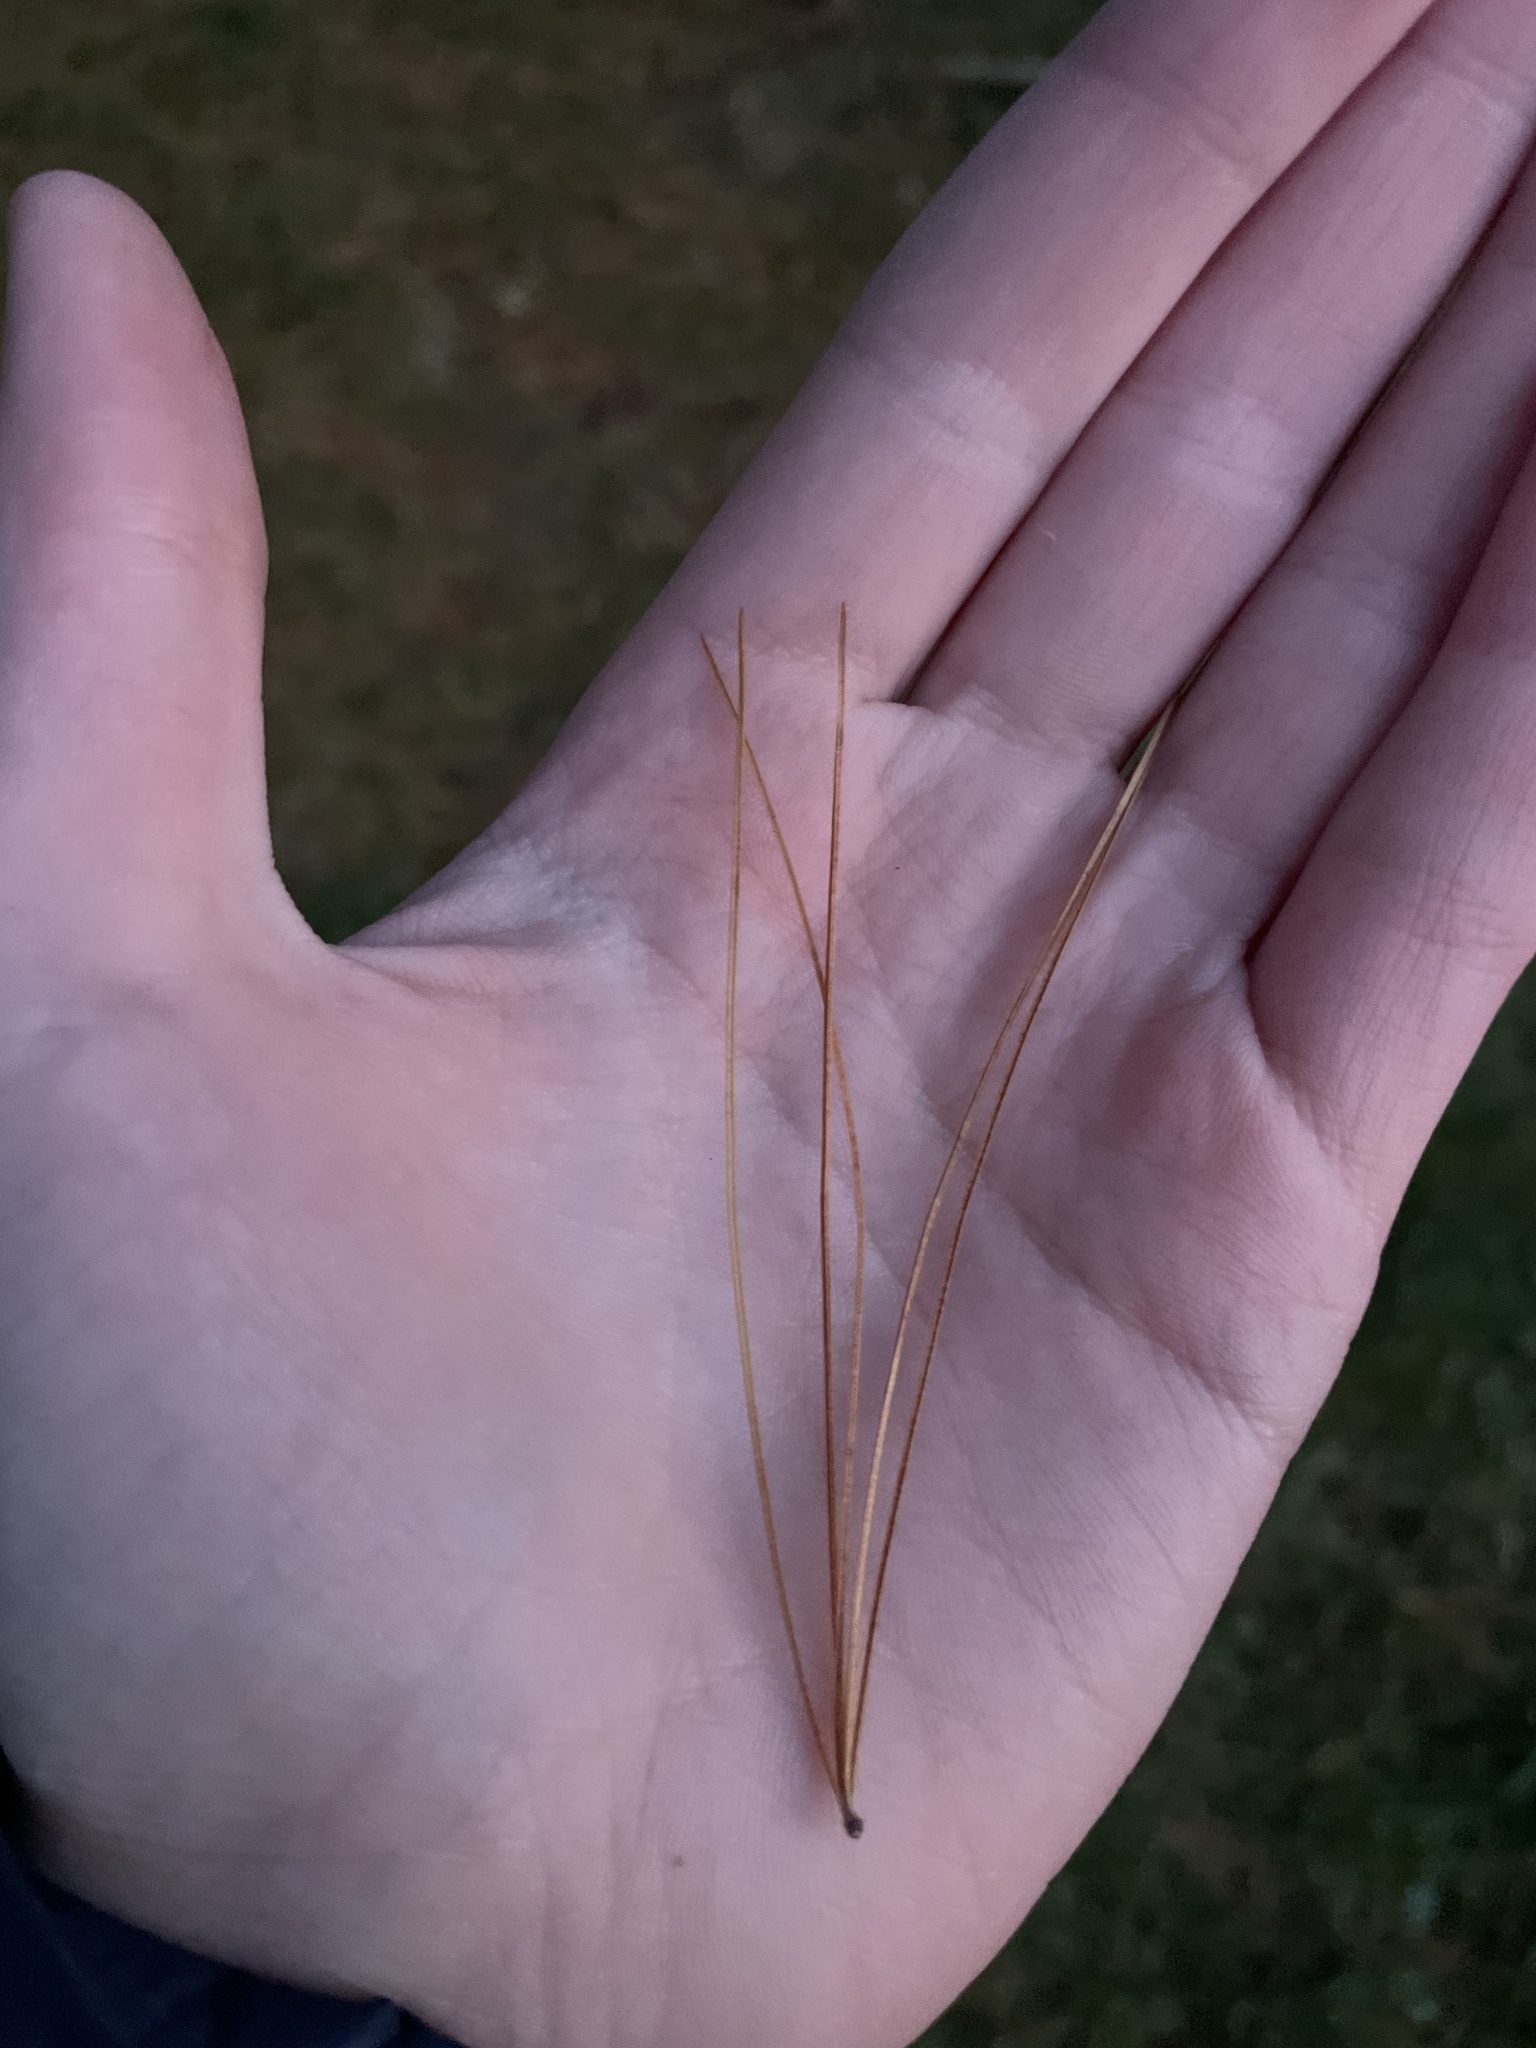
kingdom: Plantae
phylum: Tracheophyta
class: Pinopsida
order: Pinales
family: Pinaceae
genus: Pinus
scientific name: Pinus strobus
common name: Weymouth pine
